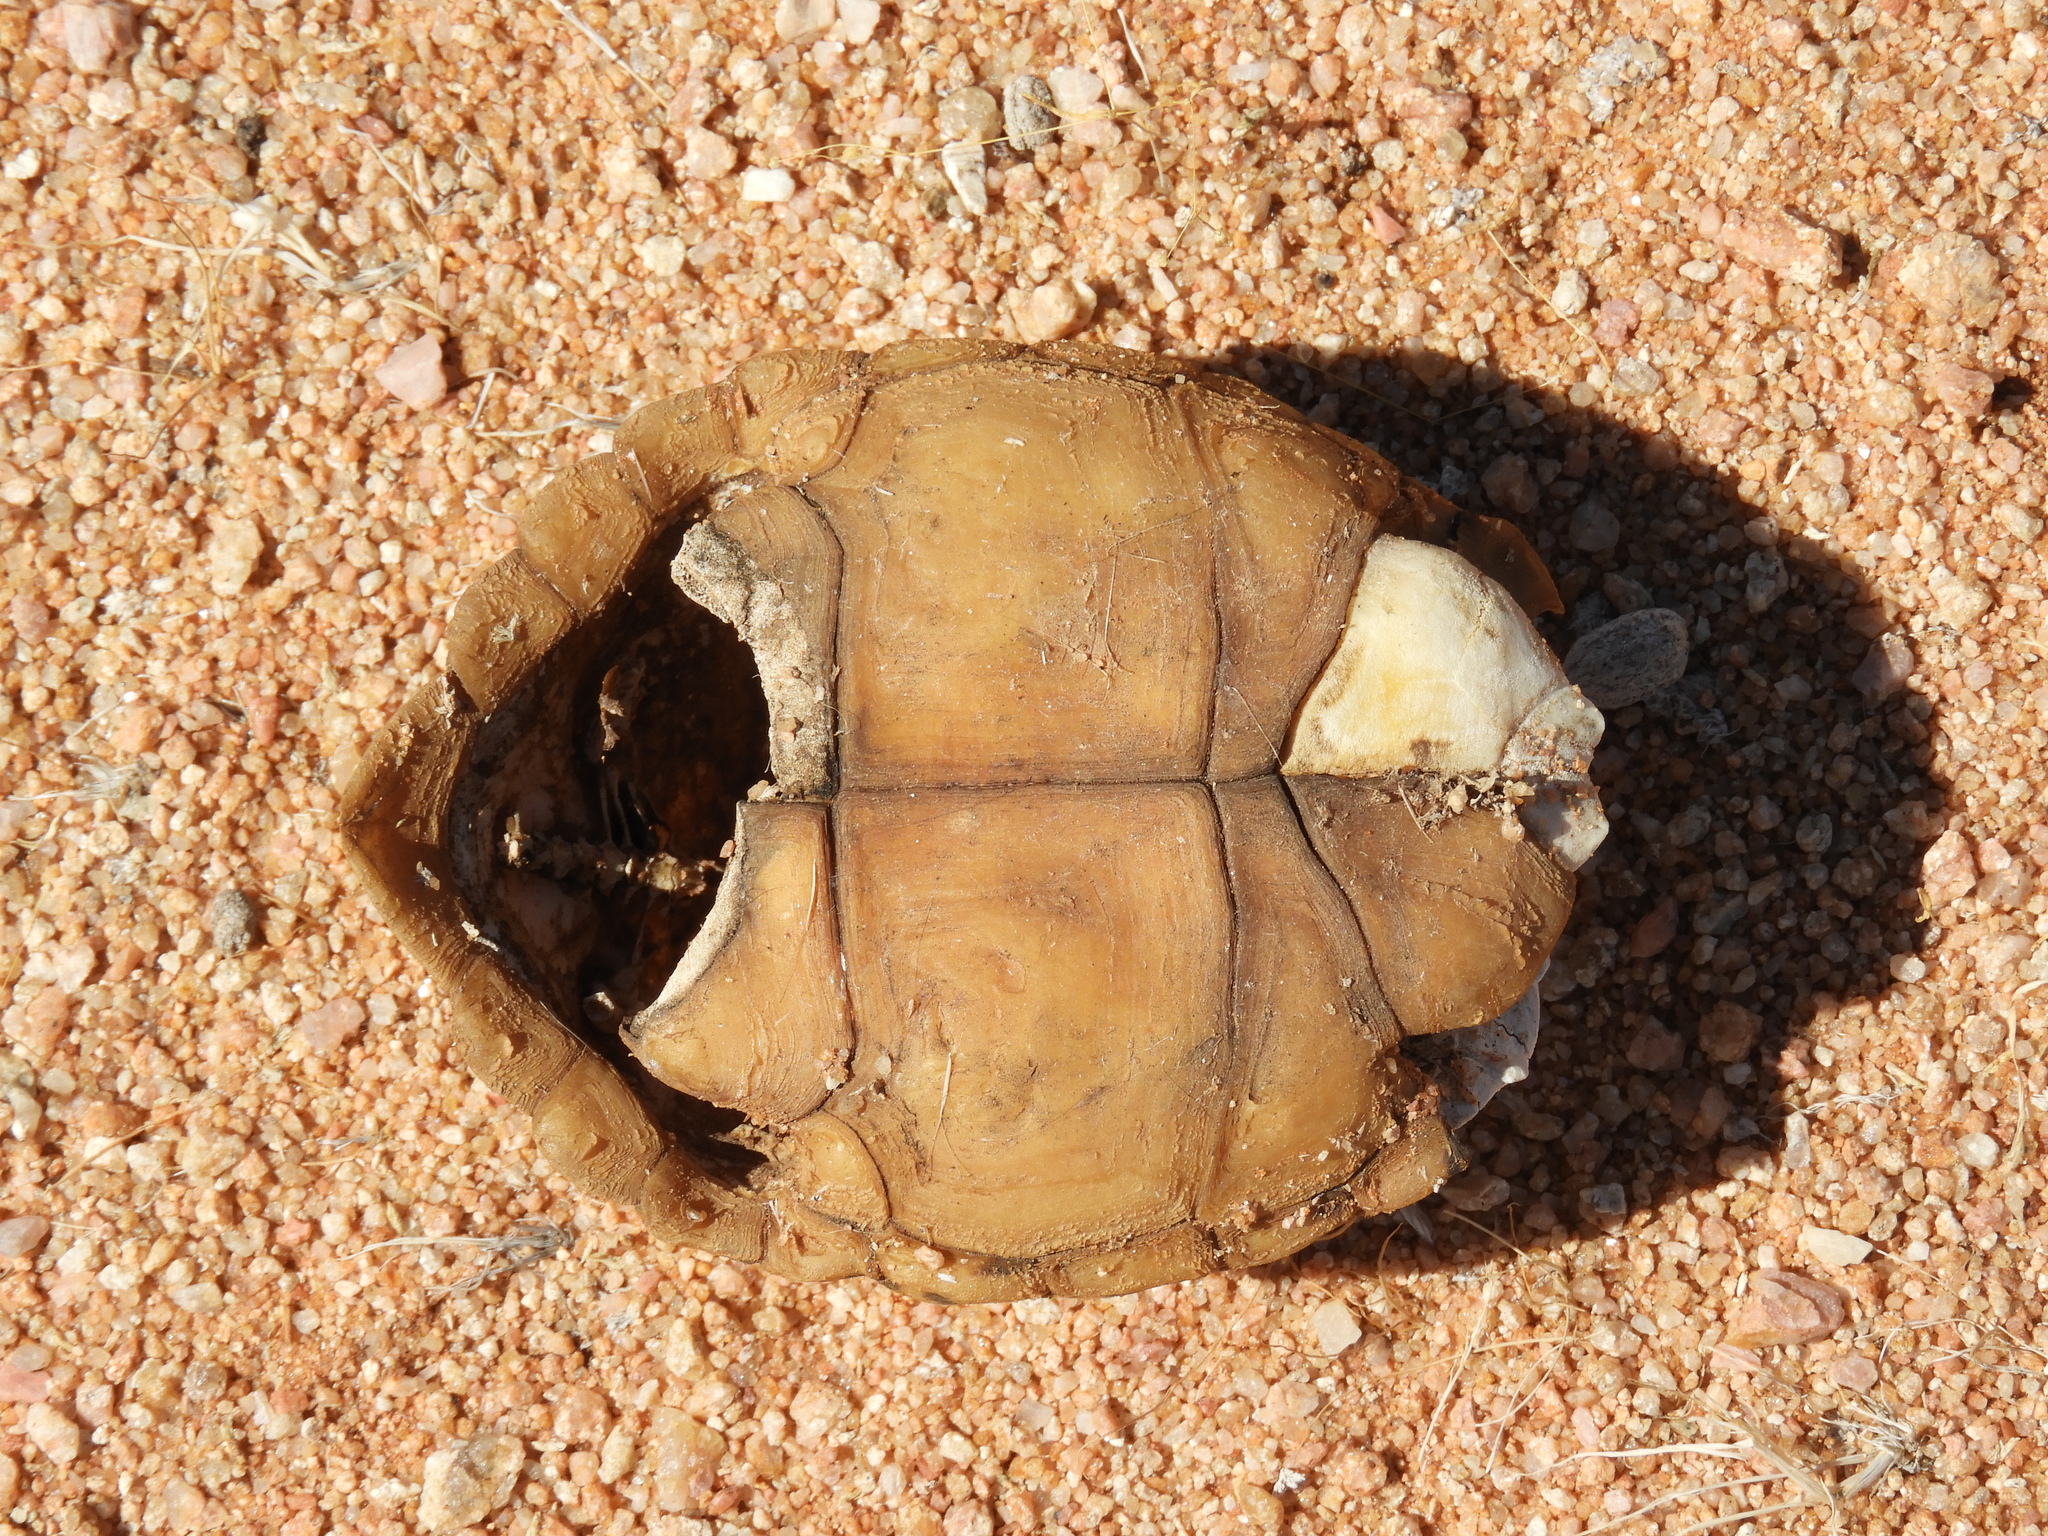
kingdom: Animalia
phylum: Chordata
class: Testudines
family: Testudinidae
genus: Psammobates
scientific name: Psammobates tentorius
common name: Tent tortoise
